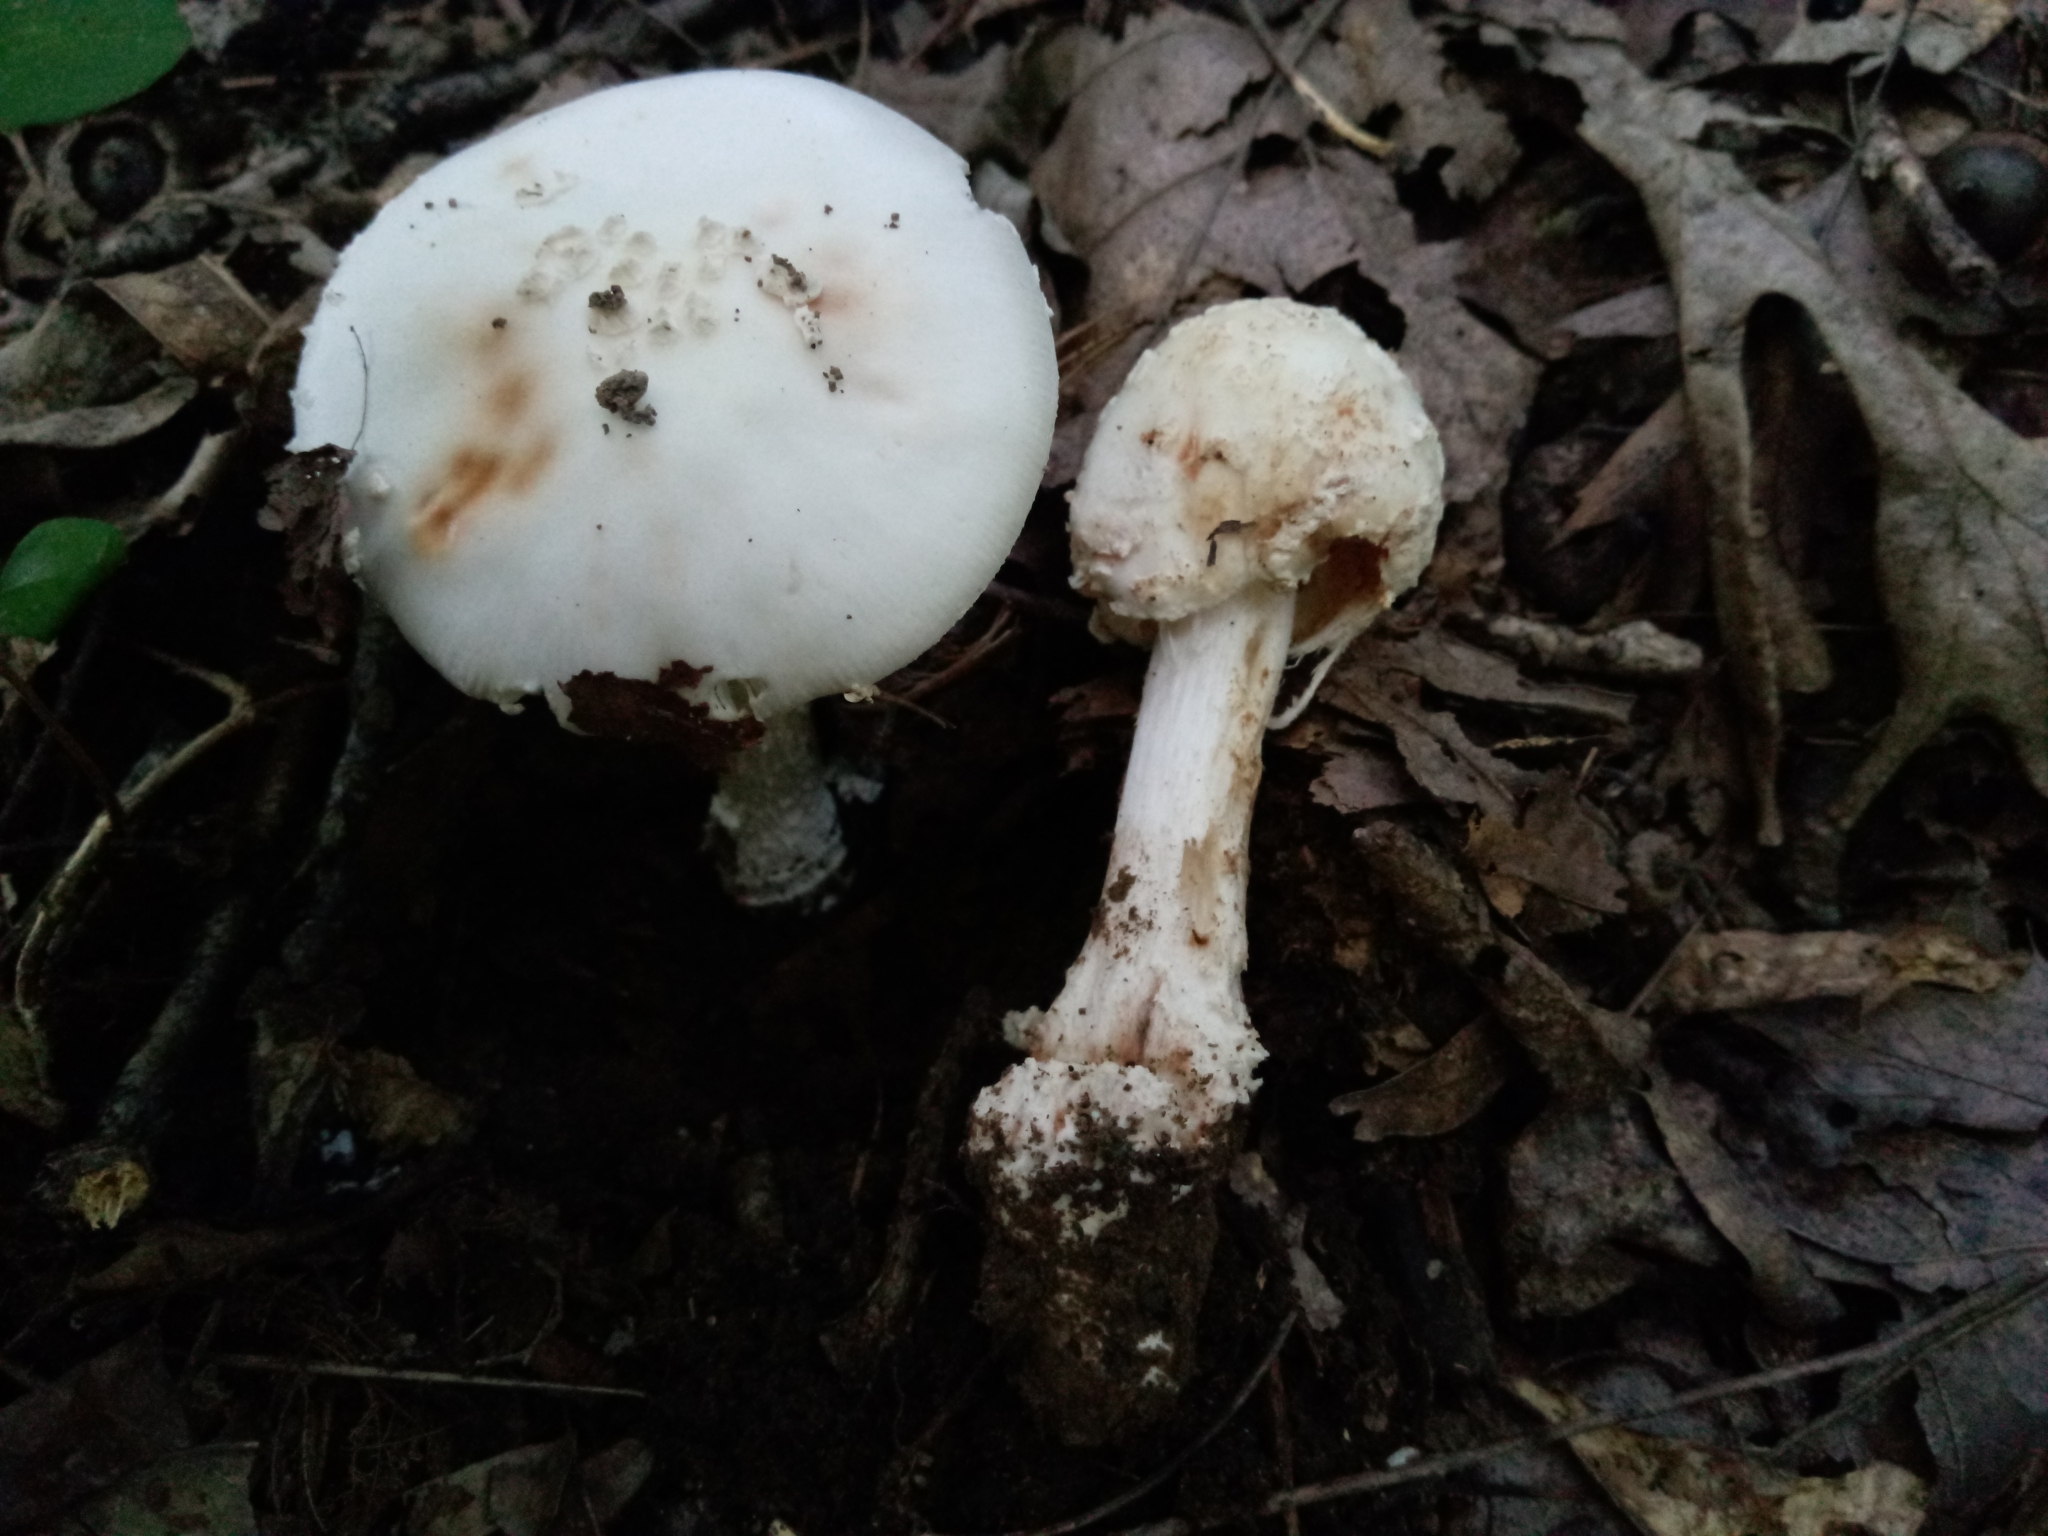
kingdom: Fungi
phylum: Basidiomycota
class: Agaricomycetes
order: Agaricales
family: Amanitaceae
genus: Amanita
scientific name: Amanita canescens
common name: Golden threads lepidella
